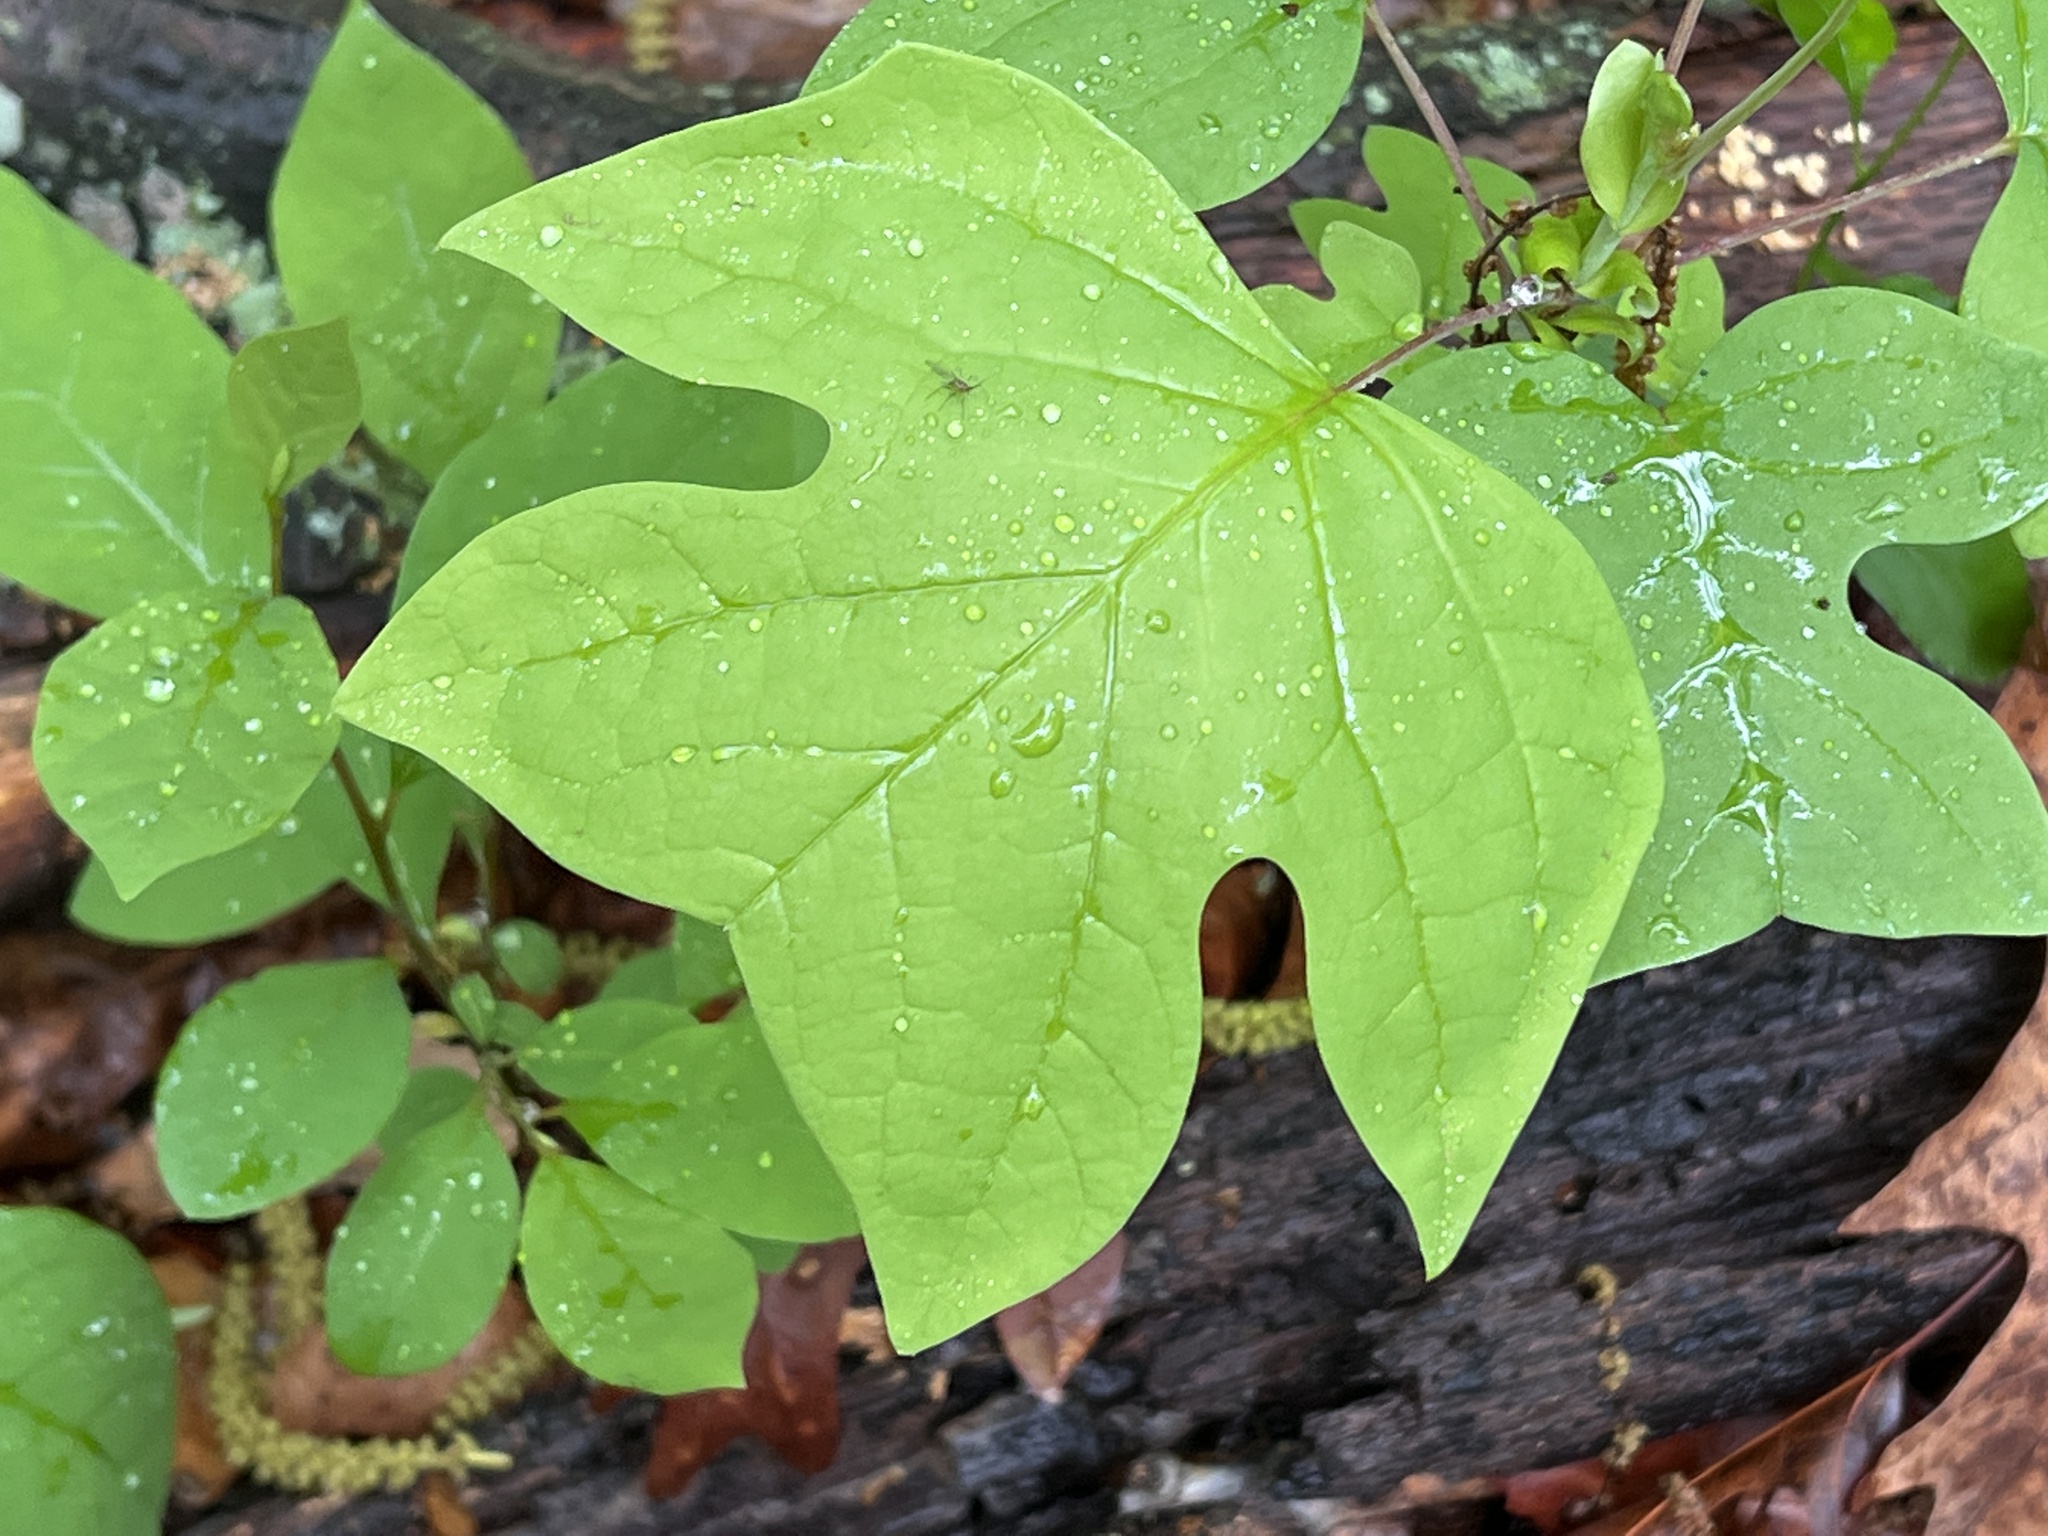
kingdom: Plantae
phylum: Tracheophyta
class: Magnoliopsida
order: Magnoliales
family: Magnoliaceae
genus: Liriodendron
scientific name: Liriodendron tulipifera
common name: Tulip tree
